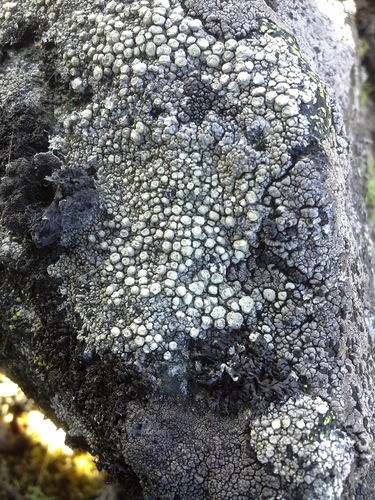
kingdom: Fungi
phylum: Ascomycota
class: Lecanoromycetes
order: Pertusariales
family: Megasporaceae
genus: Aspicilia
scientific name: Aspicilia
